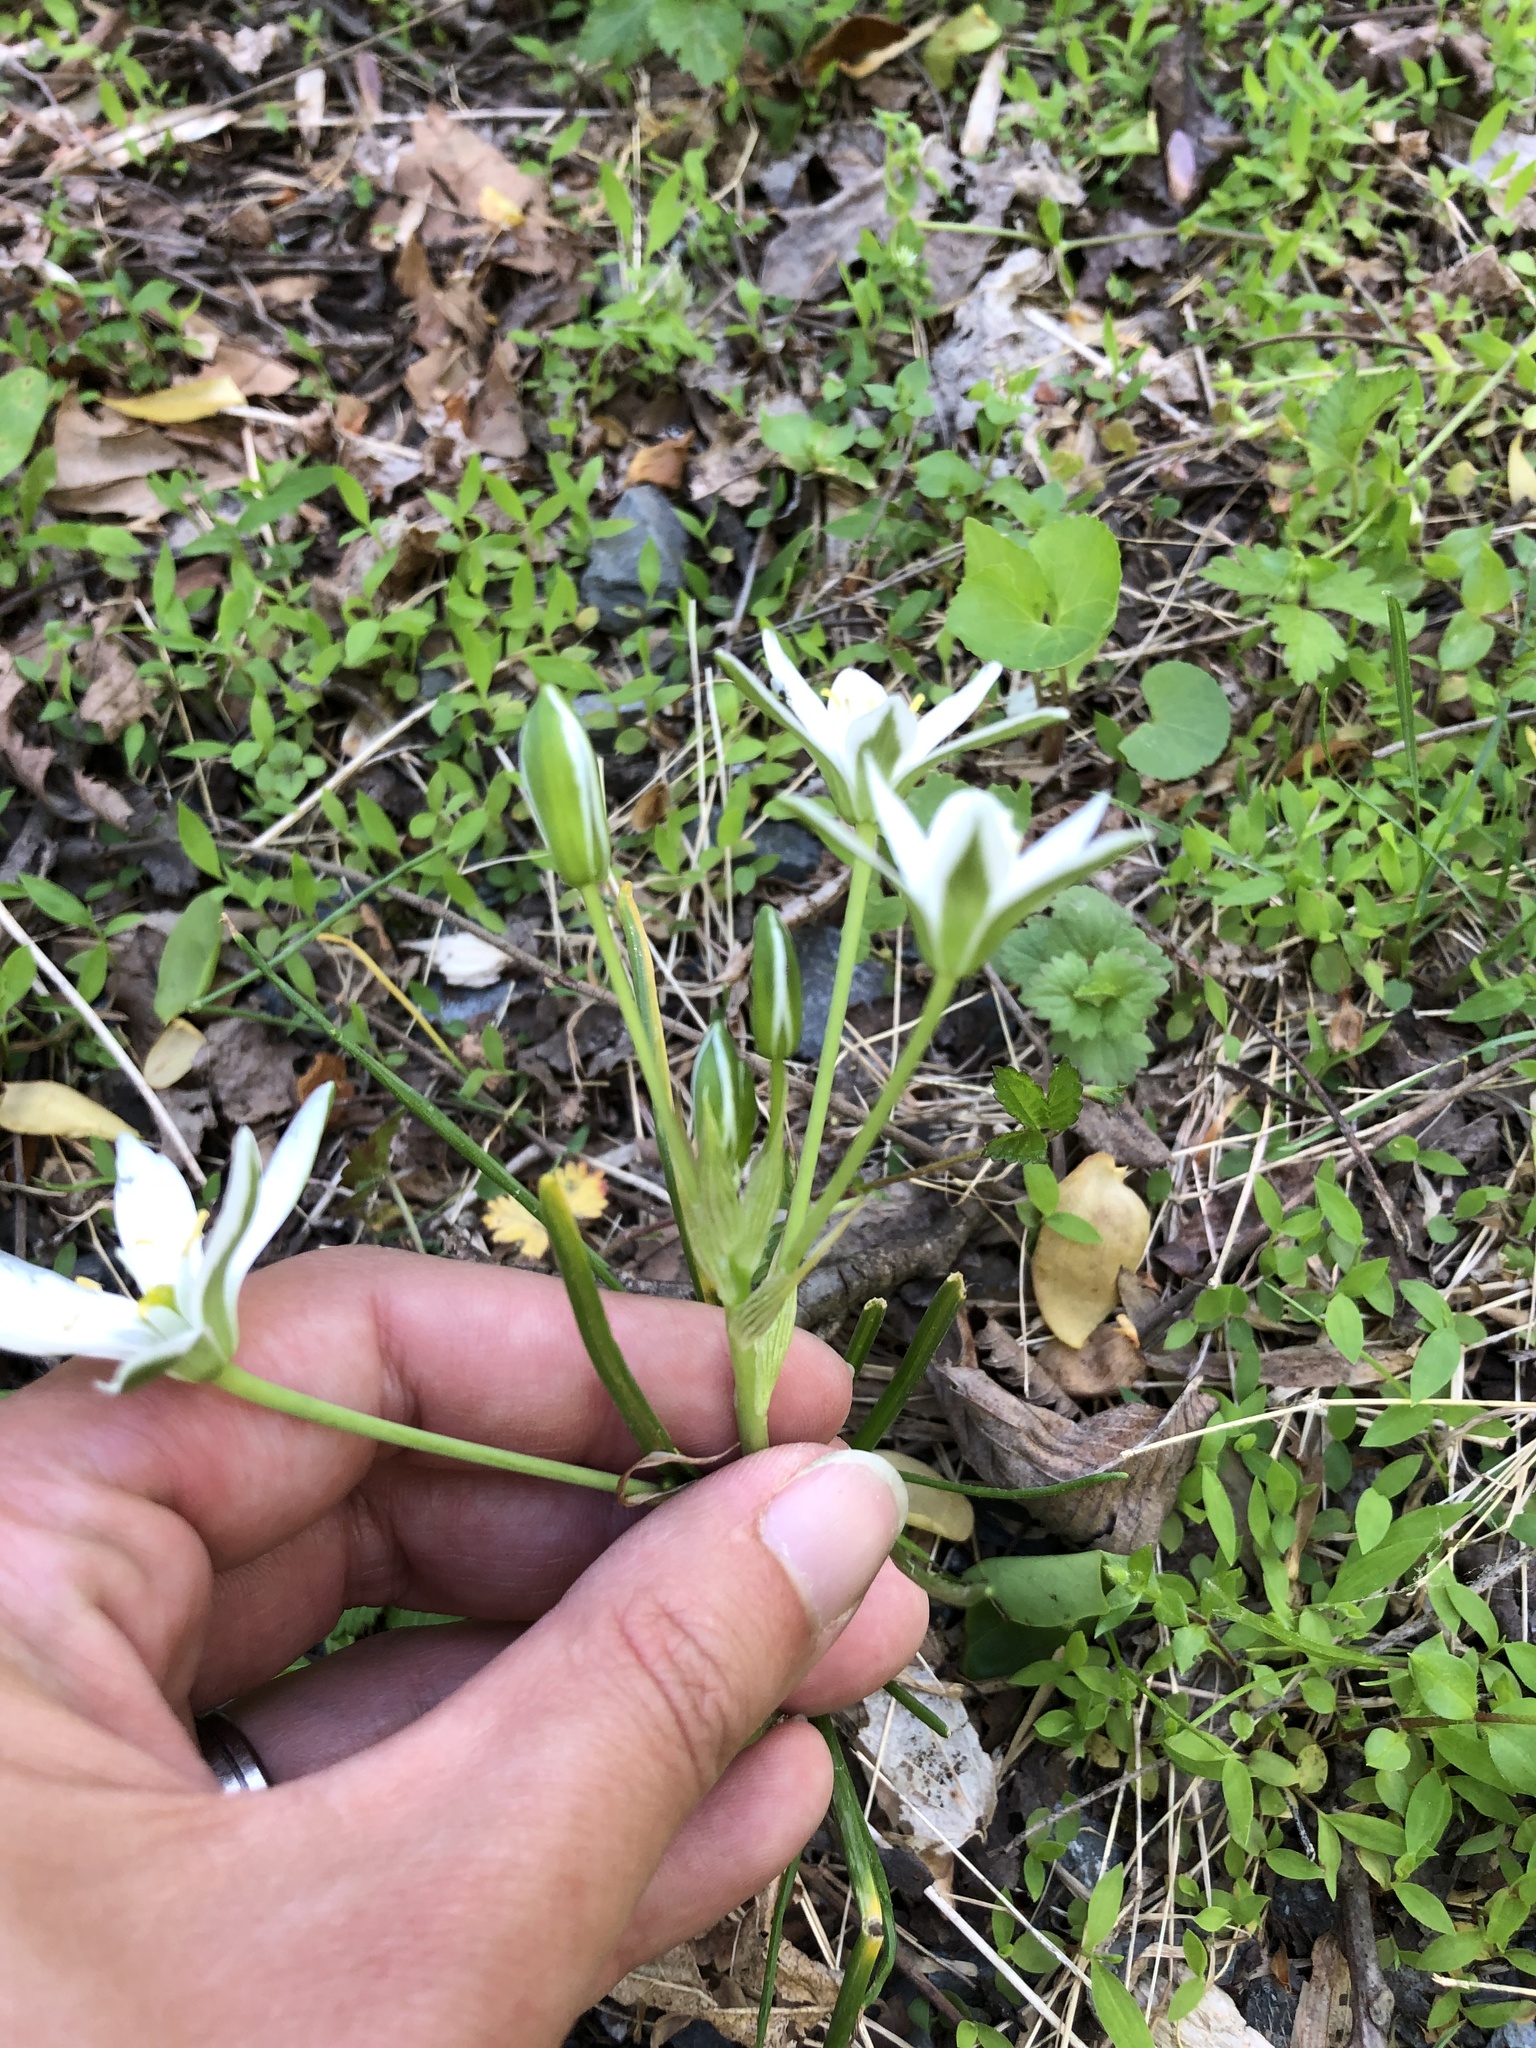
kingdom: Plantae
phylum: Tracheophyta
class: Liliopsida
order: Asparagales
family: Asparagaceae
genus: Ornithogalum
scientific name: Ornithogalum umbellatum
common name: Garden star-of-bethlehem
